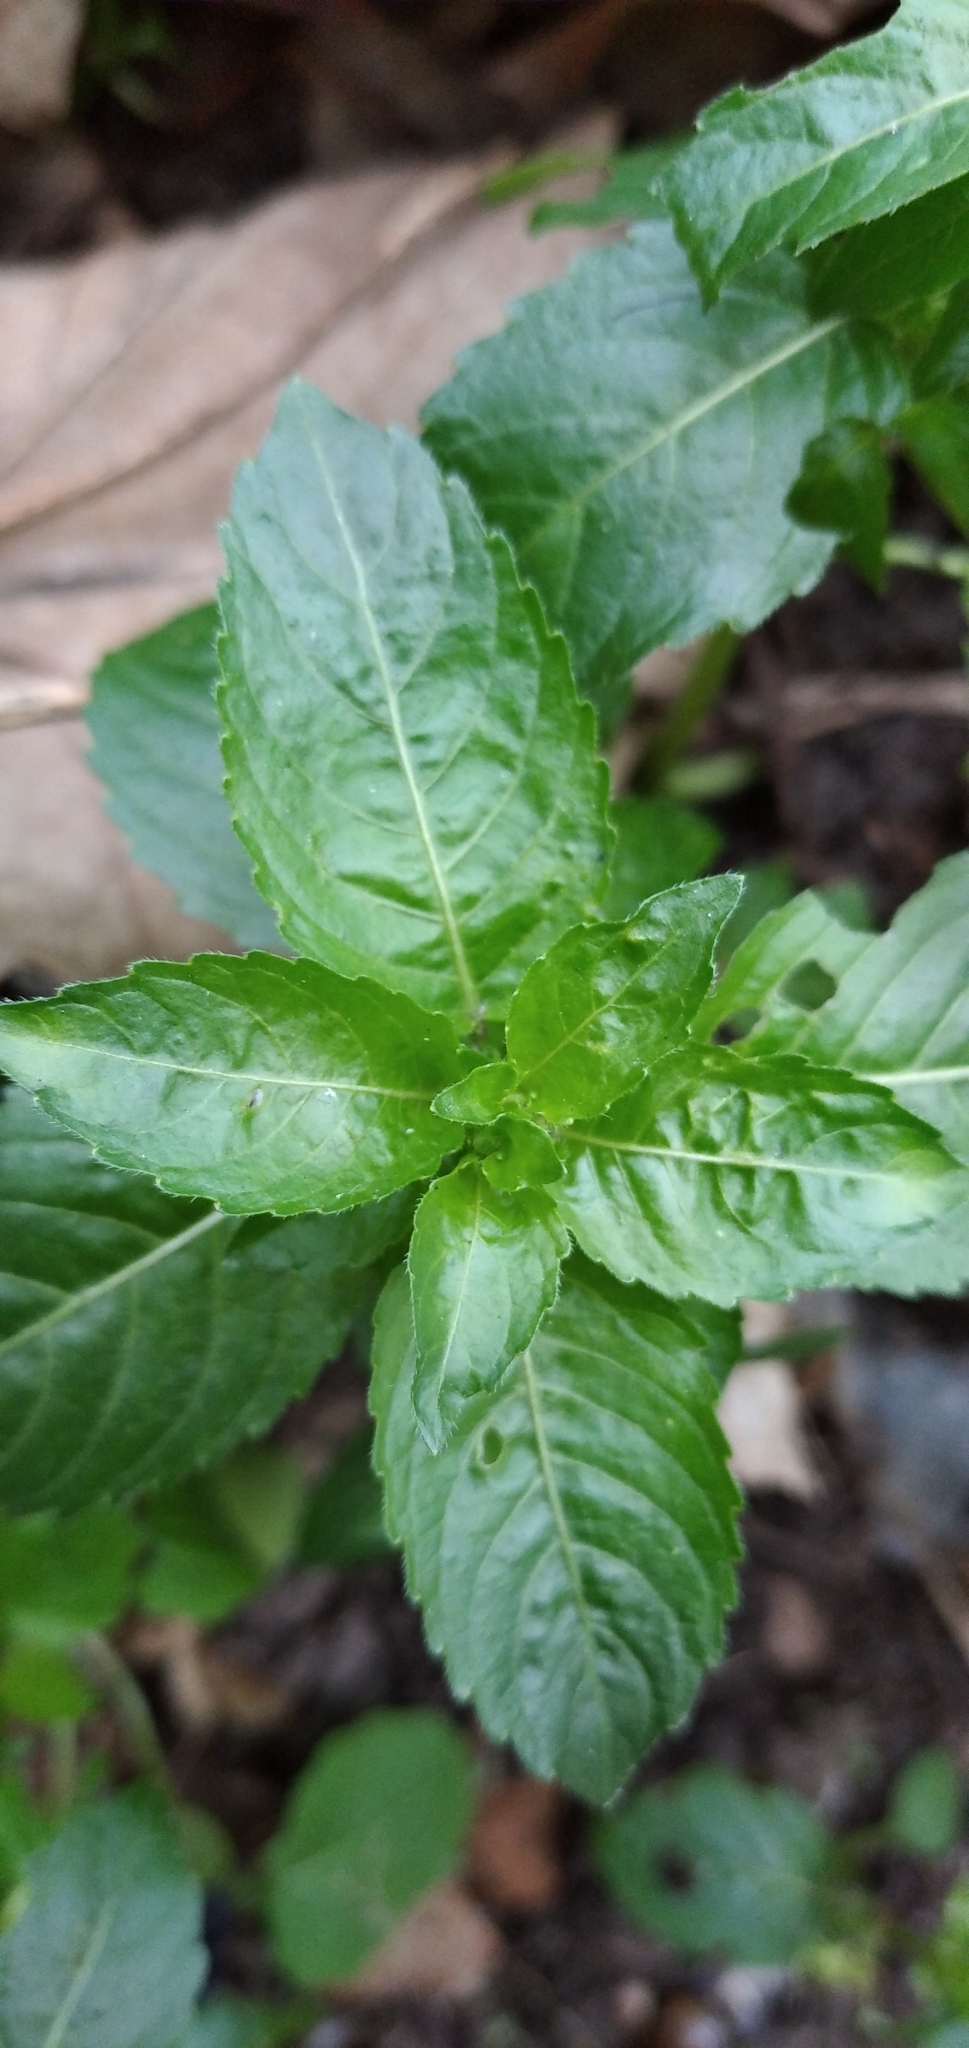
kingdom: Plantae
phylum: Tracheophyta
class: Magnoliopsida
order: Malpighiales
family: Euphorbiaceae
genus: Mercurialis
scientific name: Mercurialis annua
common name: Annual mercury
